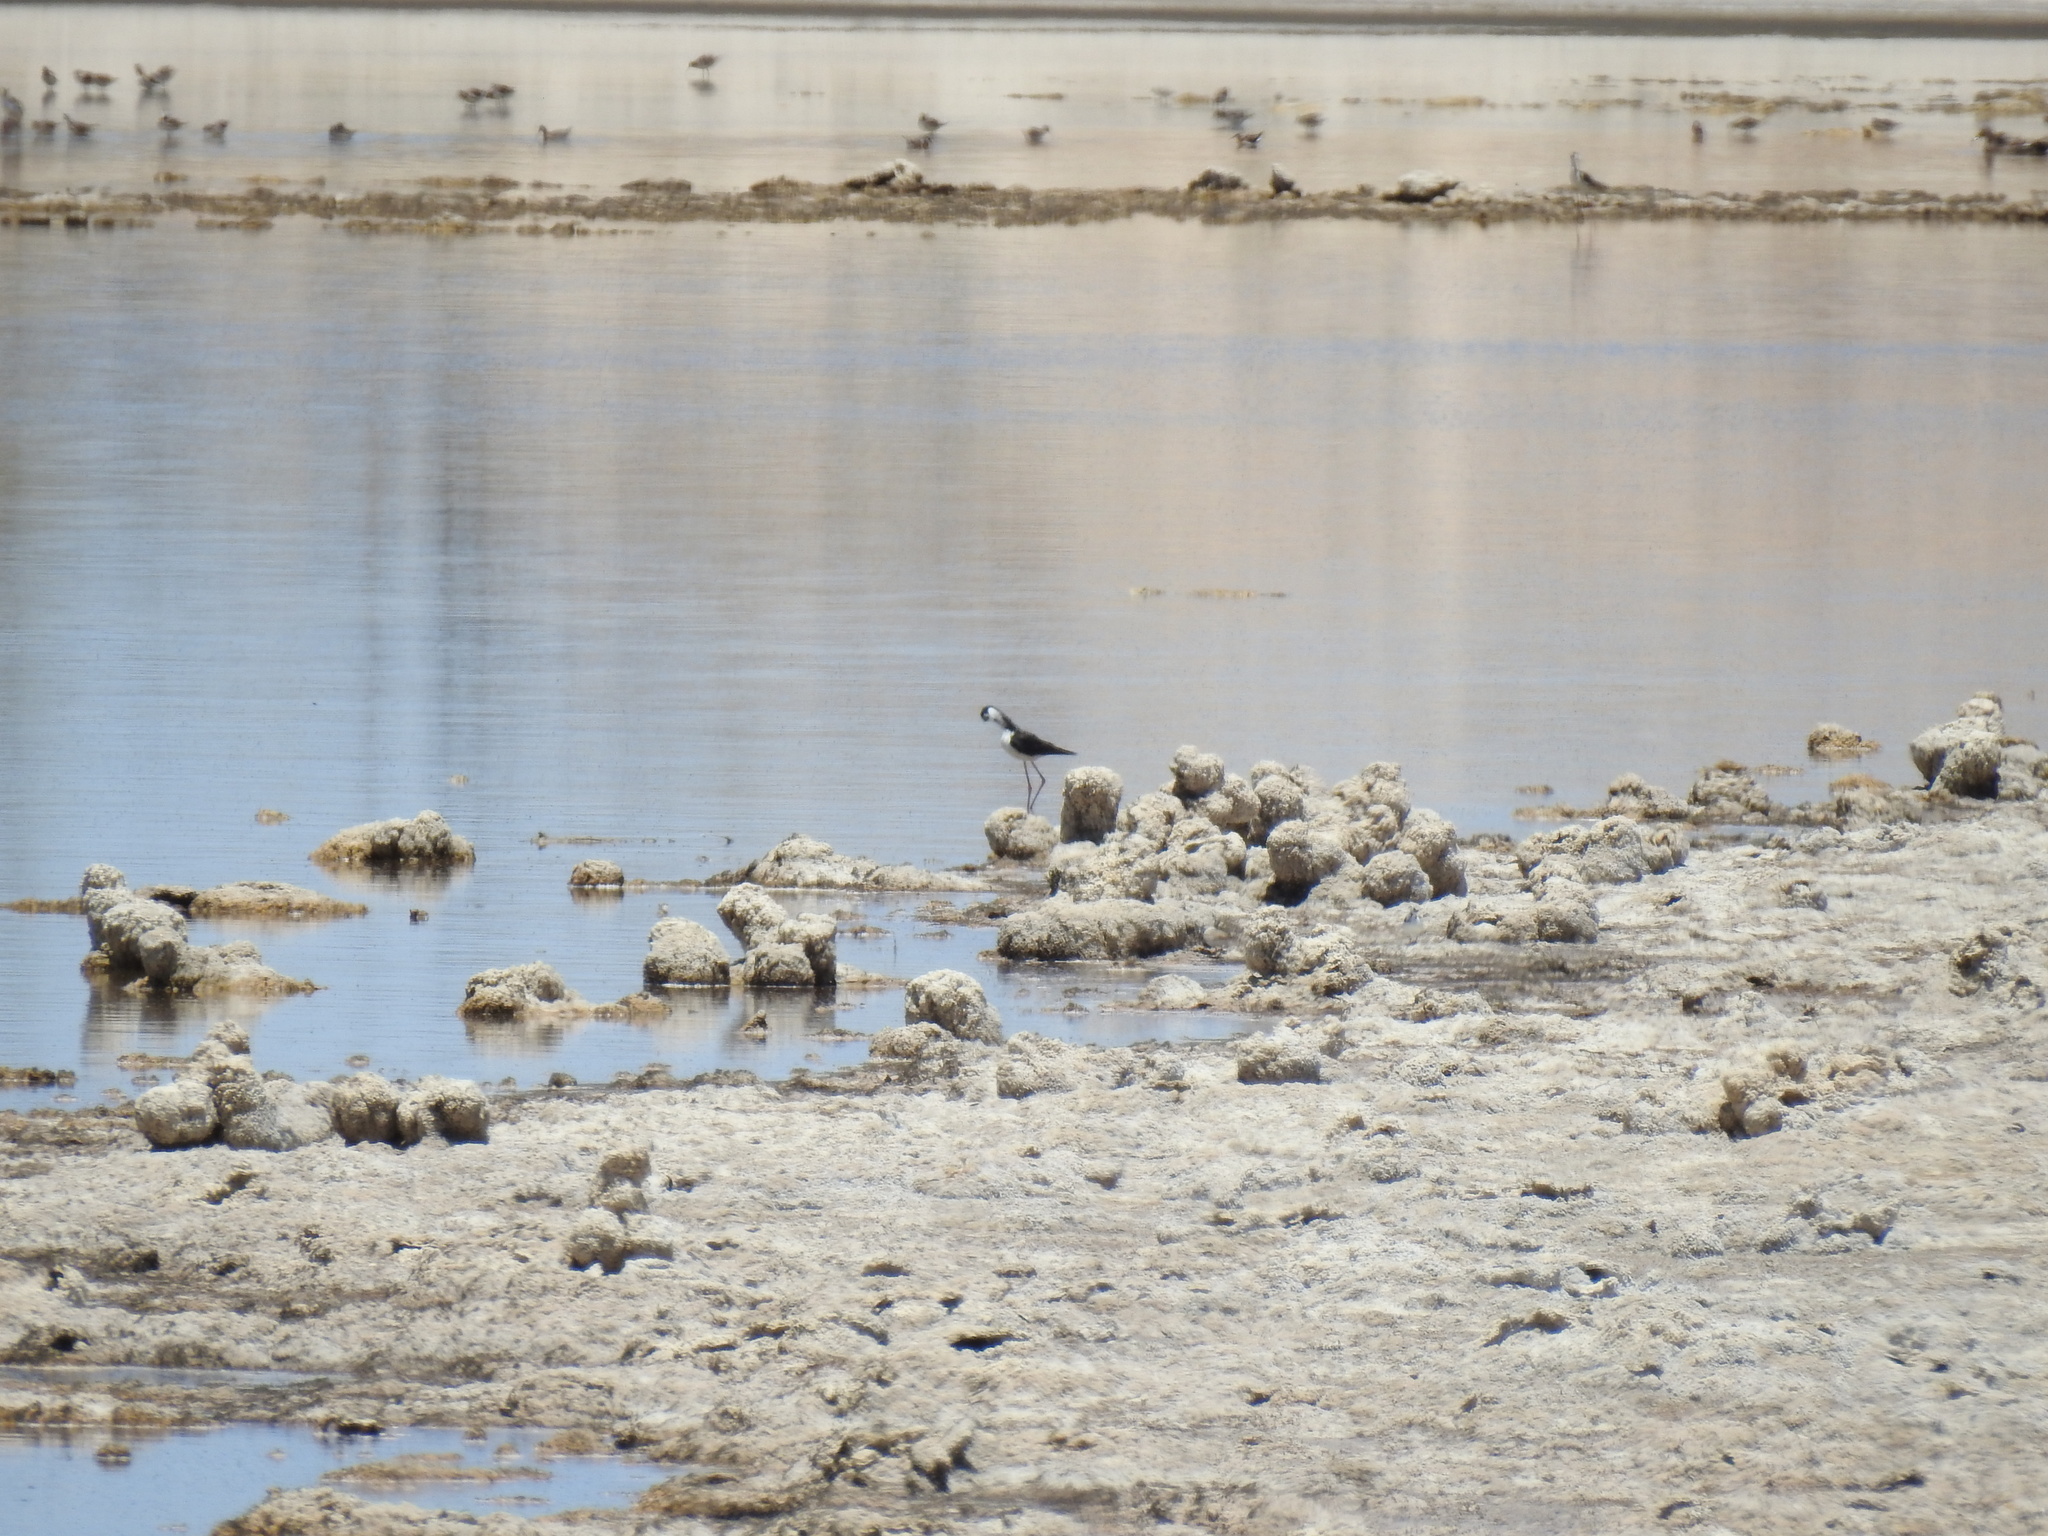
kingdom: Animalia
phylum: Chordata
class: Aves
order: Charadriiformes
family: Recurvirostridae
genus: Himantopus
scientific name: Himantopus mexicanus
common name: Black-necked stilt
